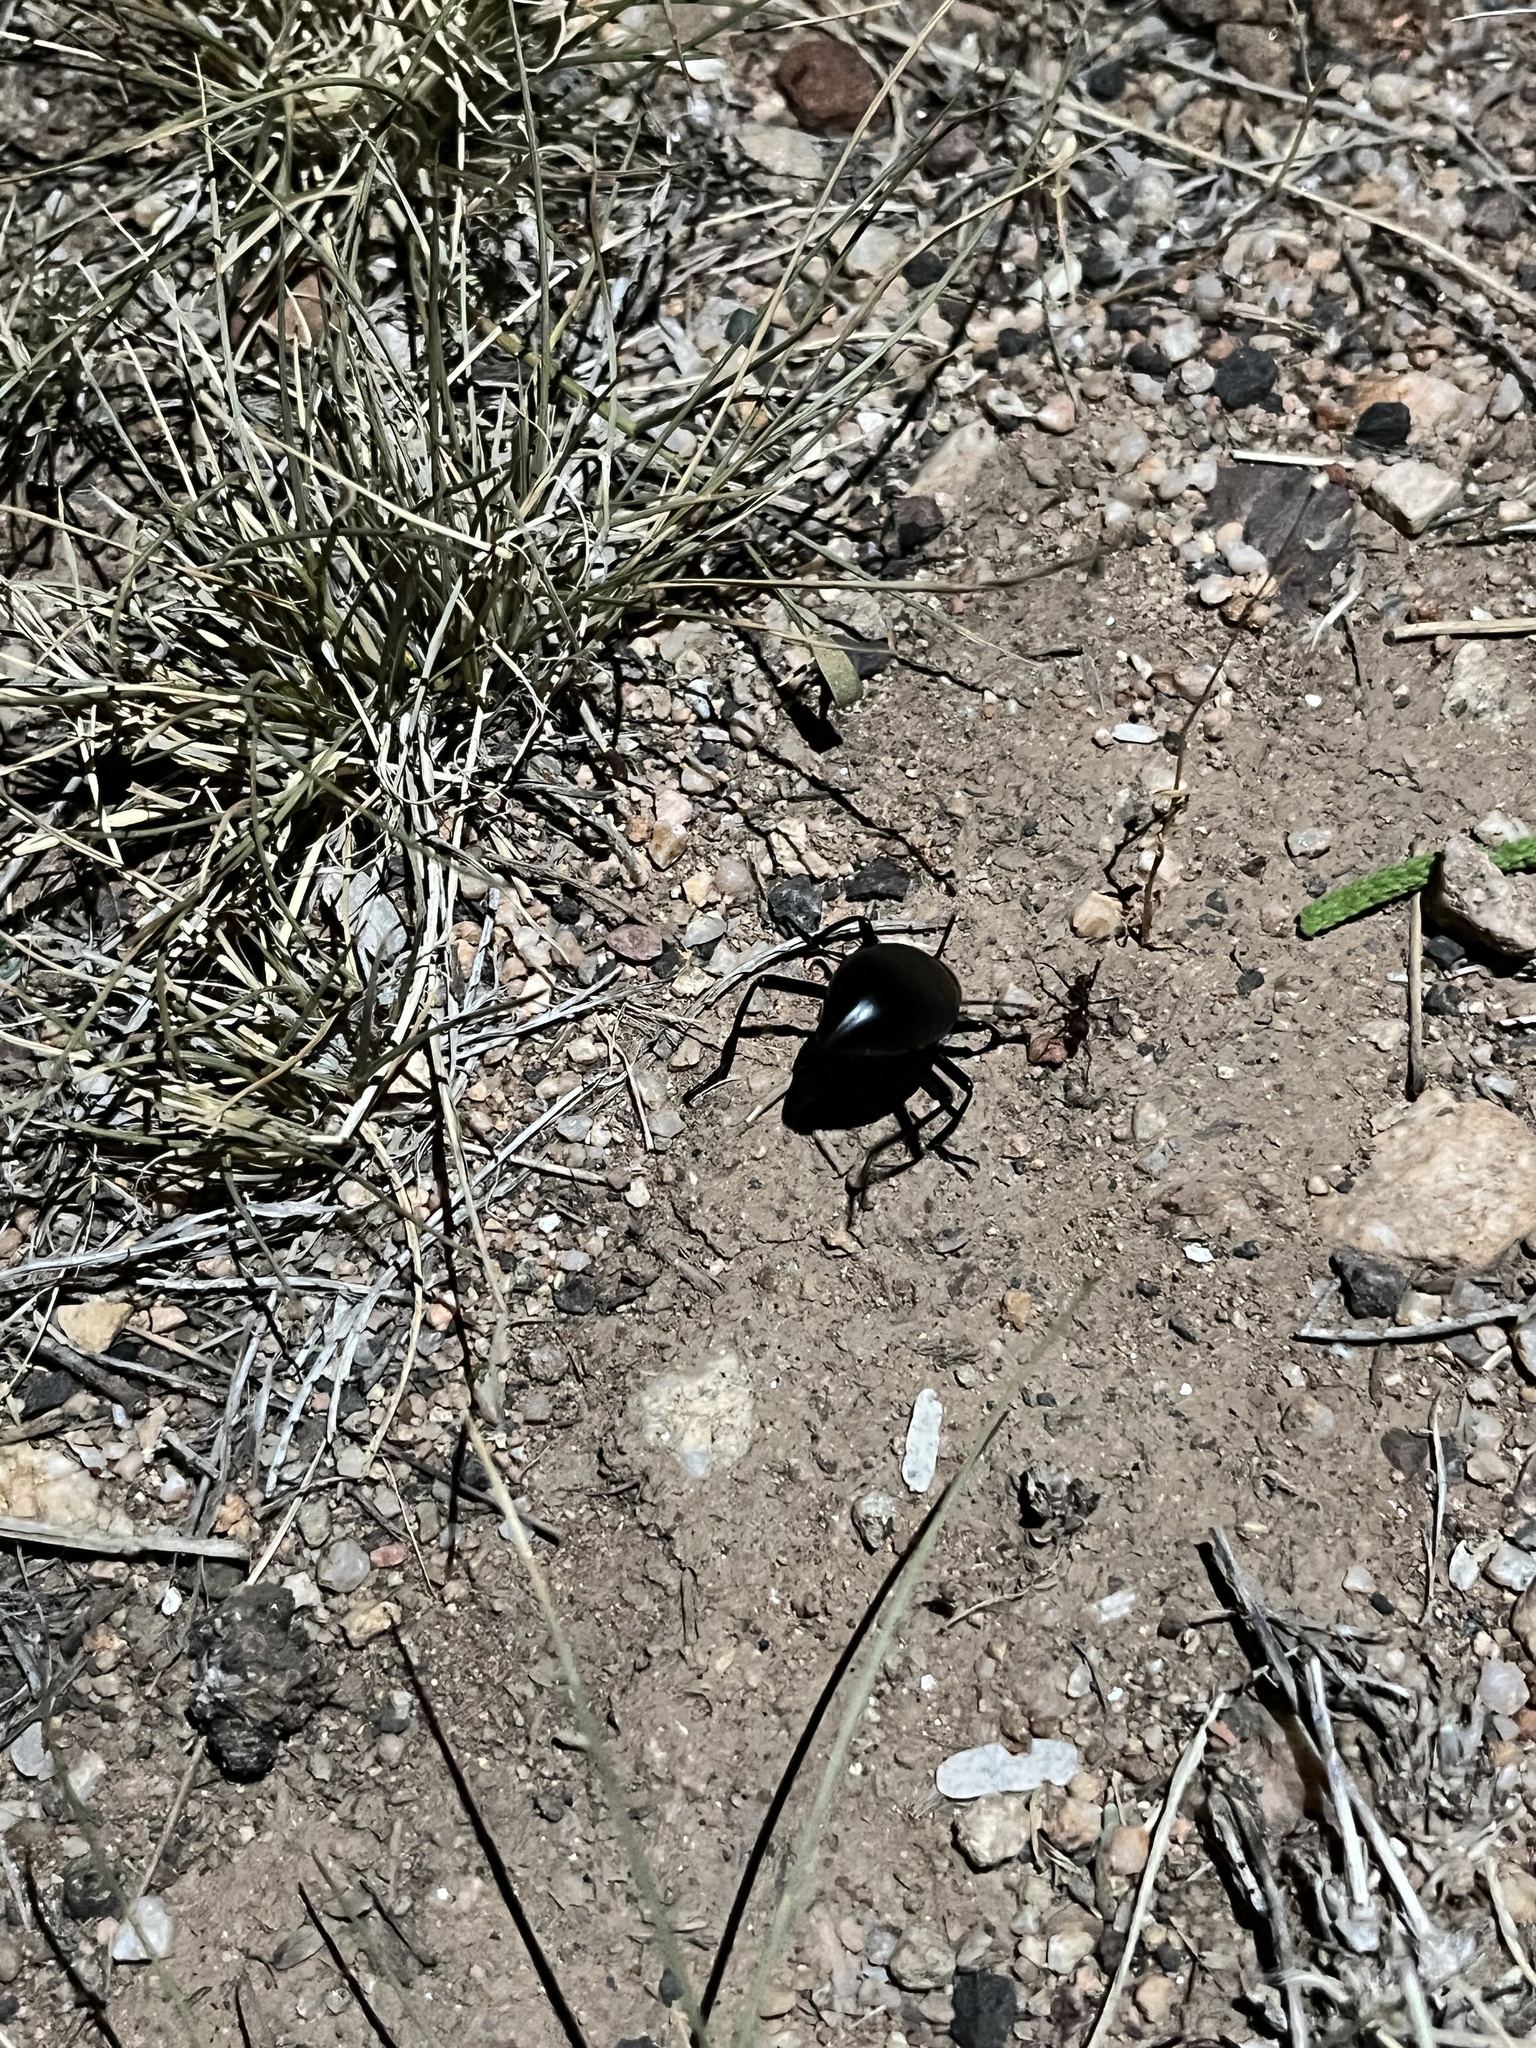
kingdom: Animalia
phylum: Arthropoda
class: Insecta
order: Coleoptera
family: Tenebrionidae
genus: Eleodes
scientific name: Eleodes longicollis
